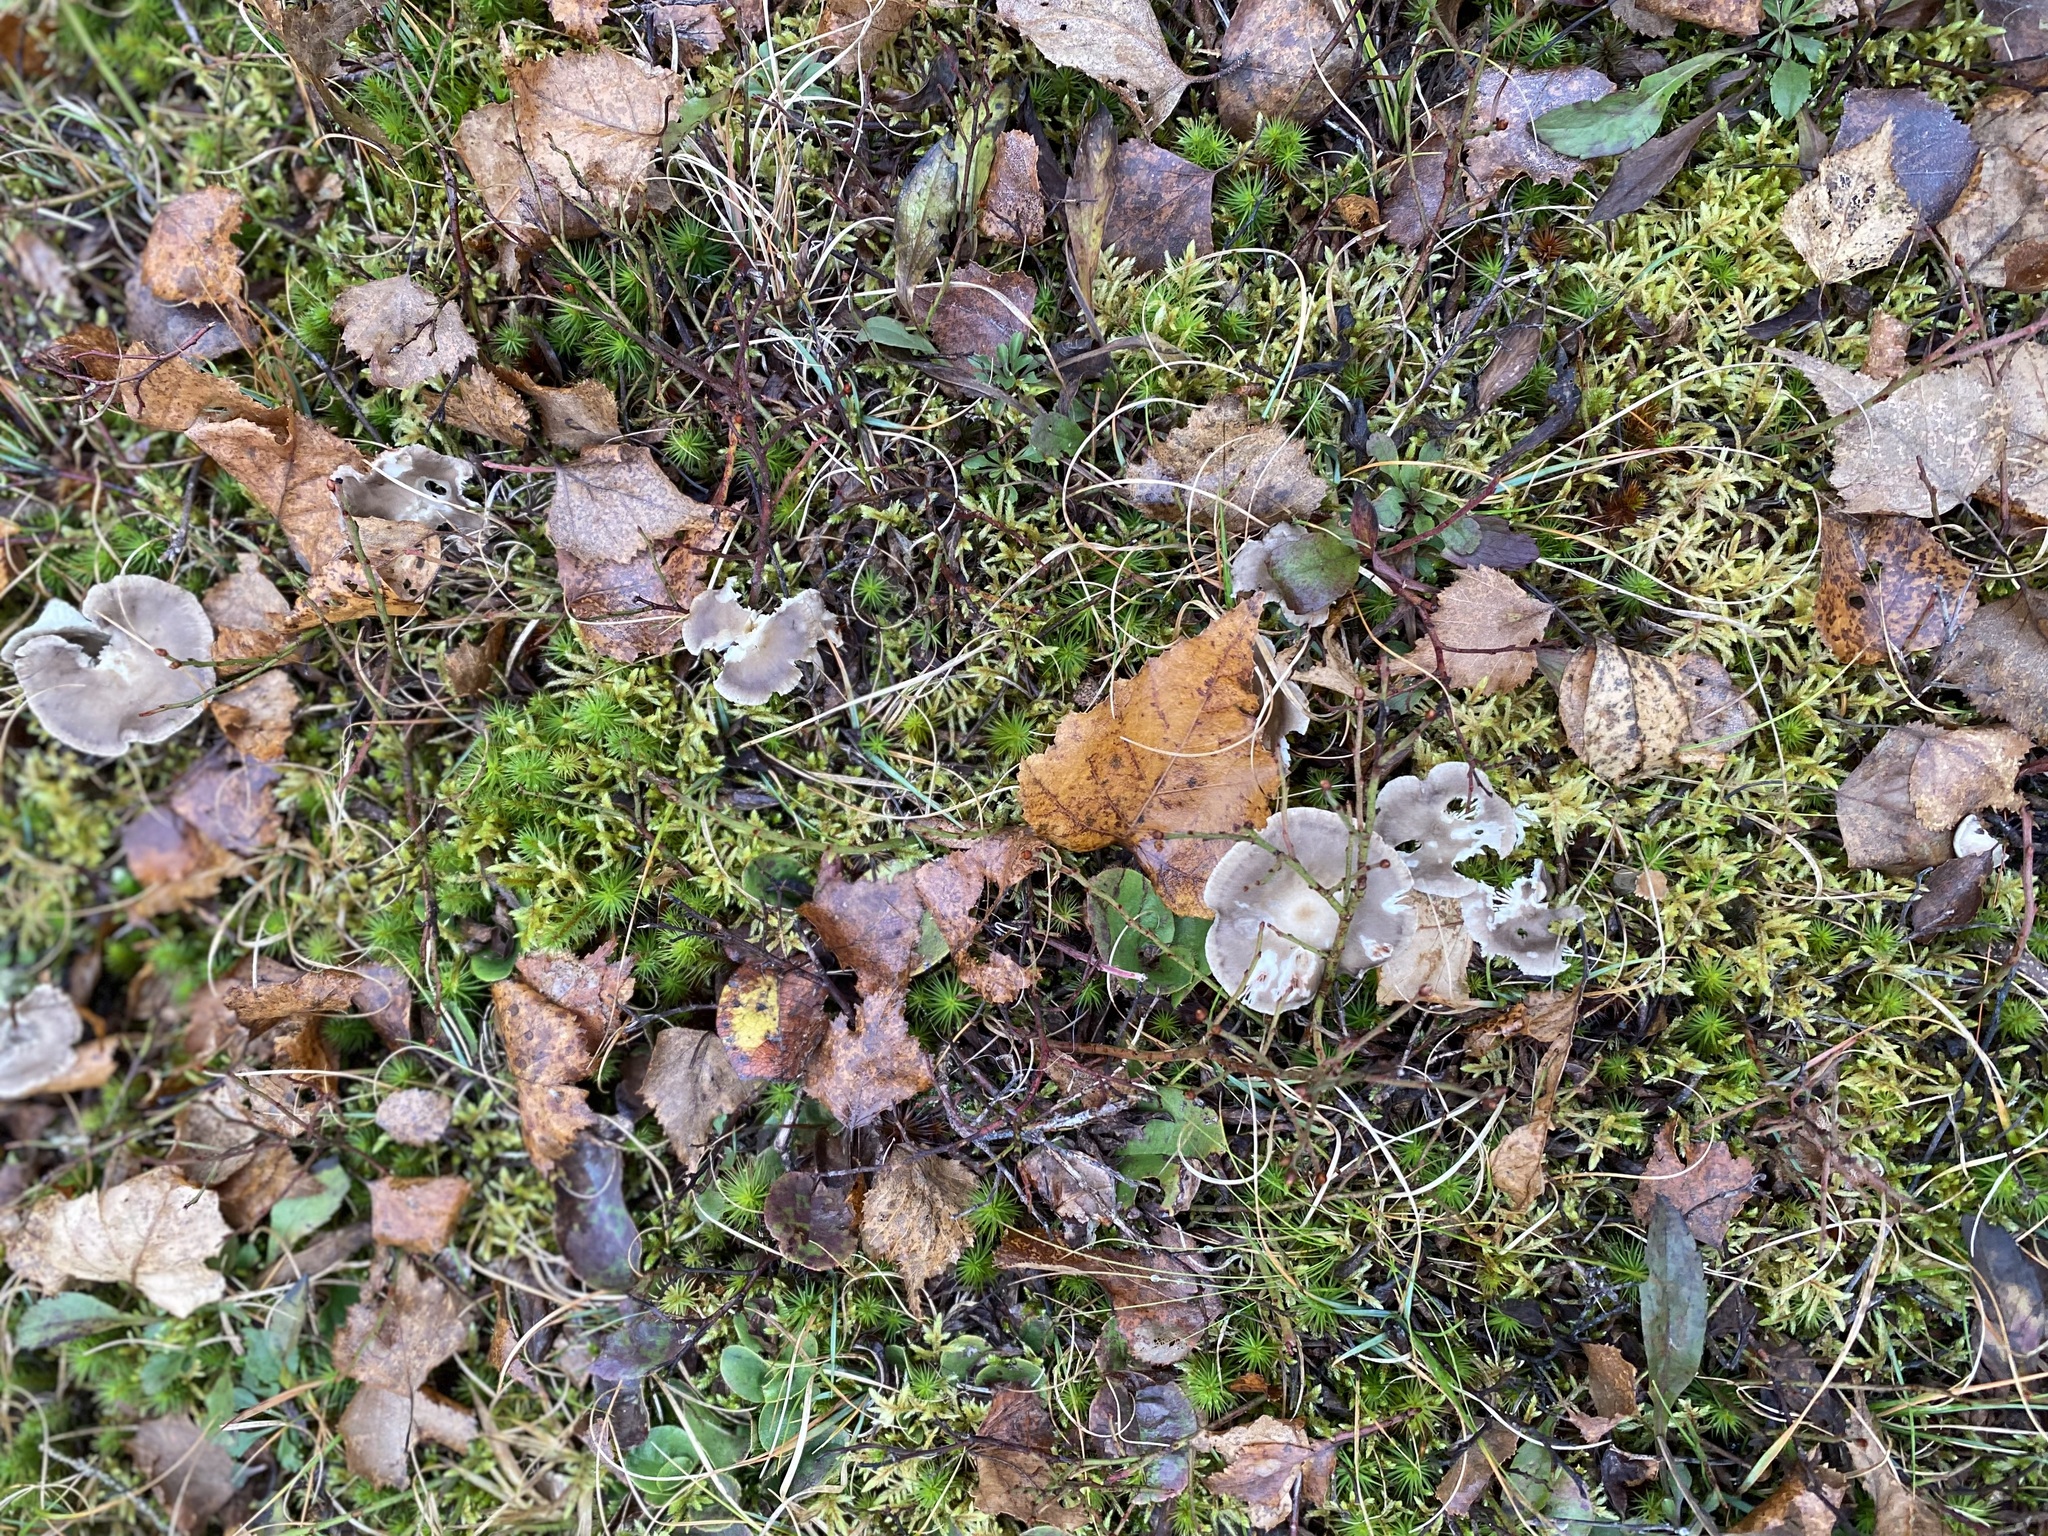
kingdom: Plantae
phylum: Tracheophyta
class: Magnoliopsida
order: Ericales
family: Ericaceae
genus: Epigaea
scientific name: Epigaea repens
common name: Gravelroot
